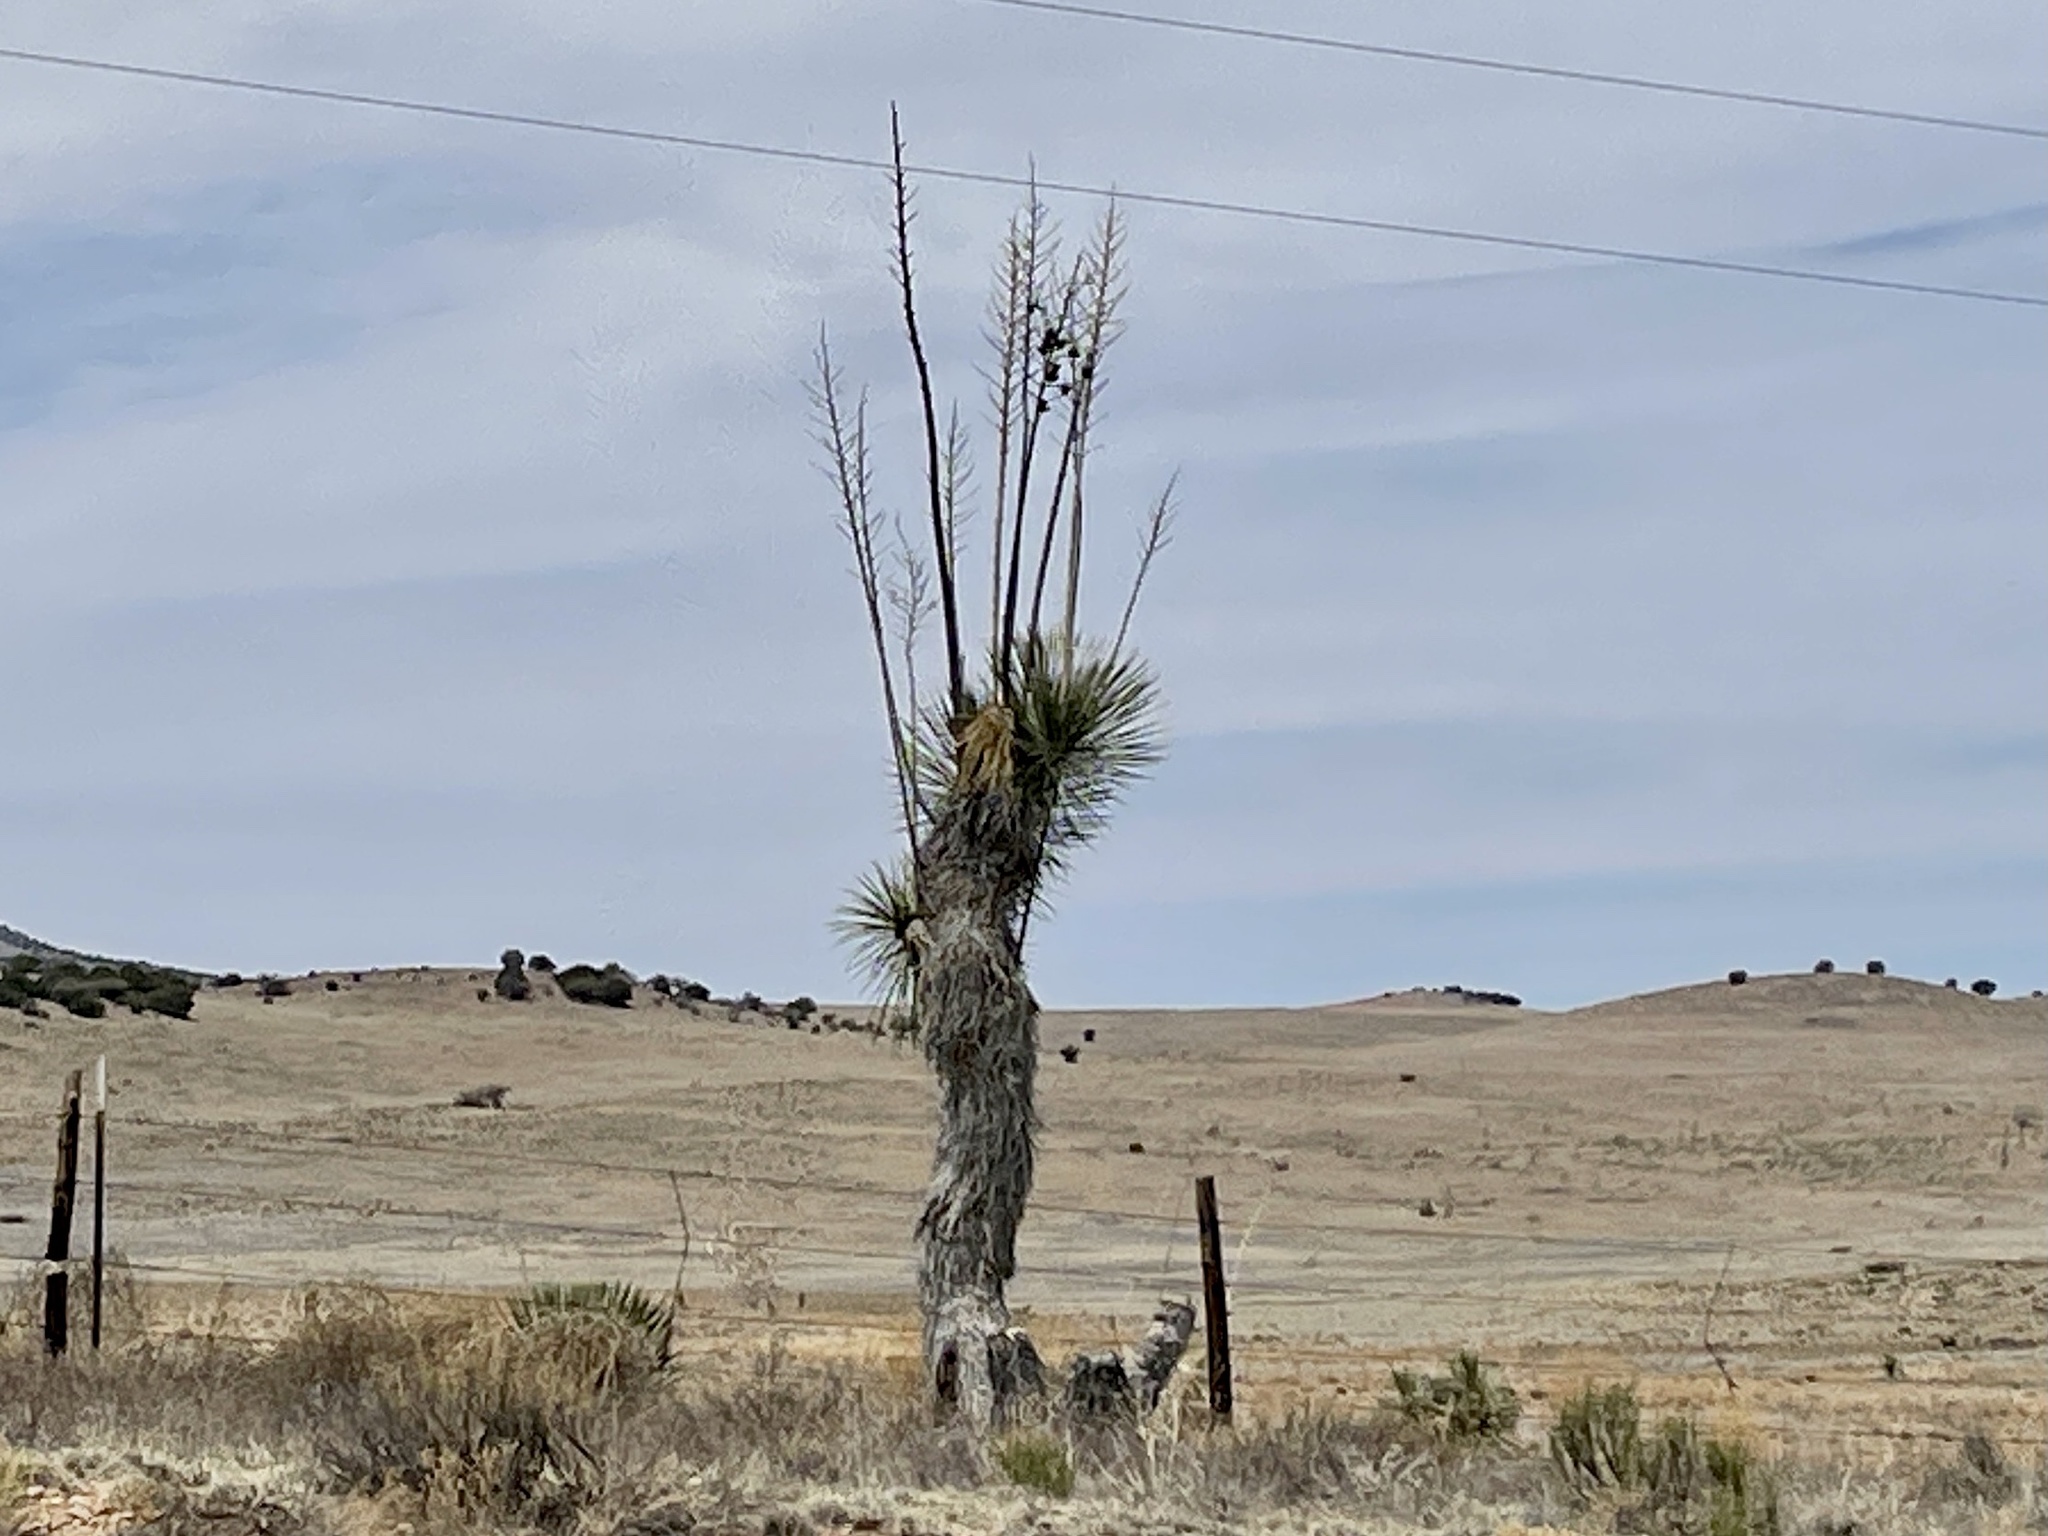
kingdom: Plantae
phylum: Tracheophyta
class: Liliopsida
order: Asparagales
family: Asparagaceae
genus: Yucca
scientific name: Yucca elata
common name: Palmella
